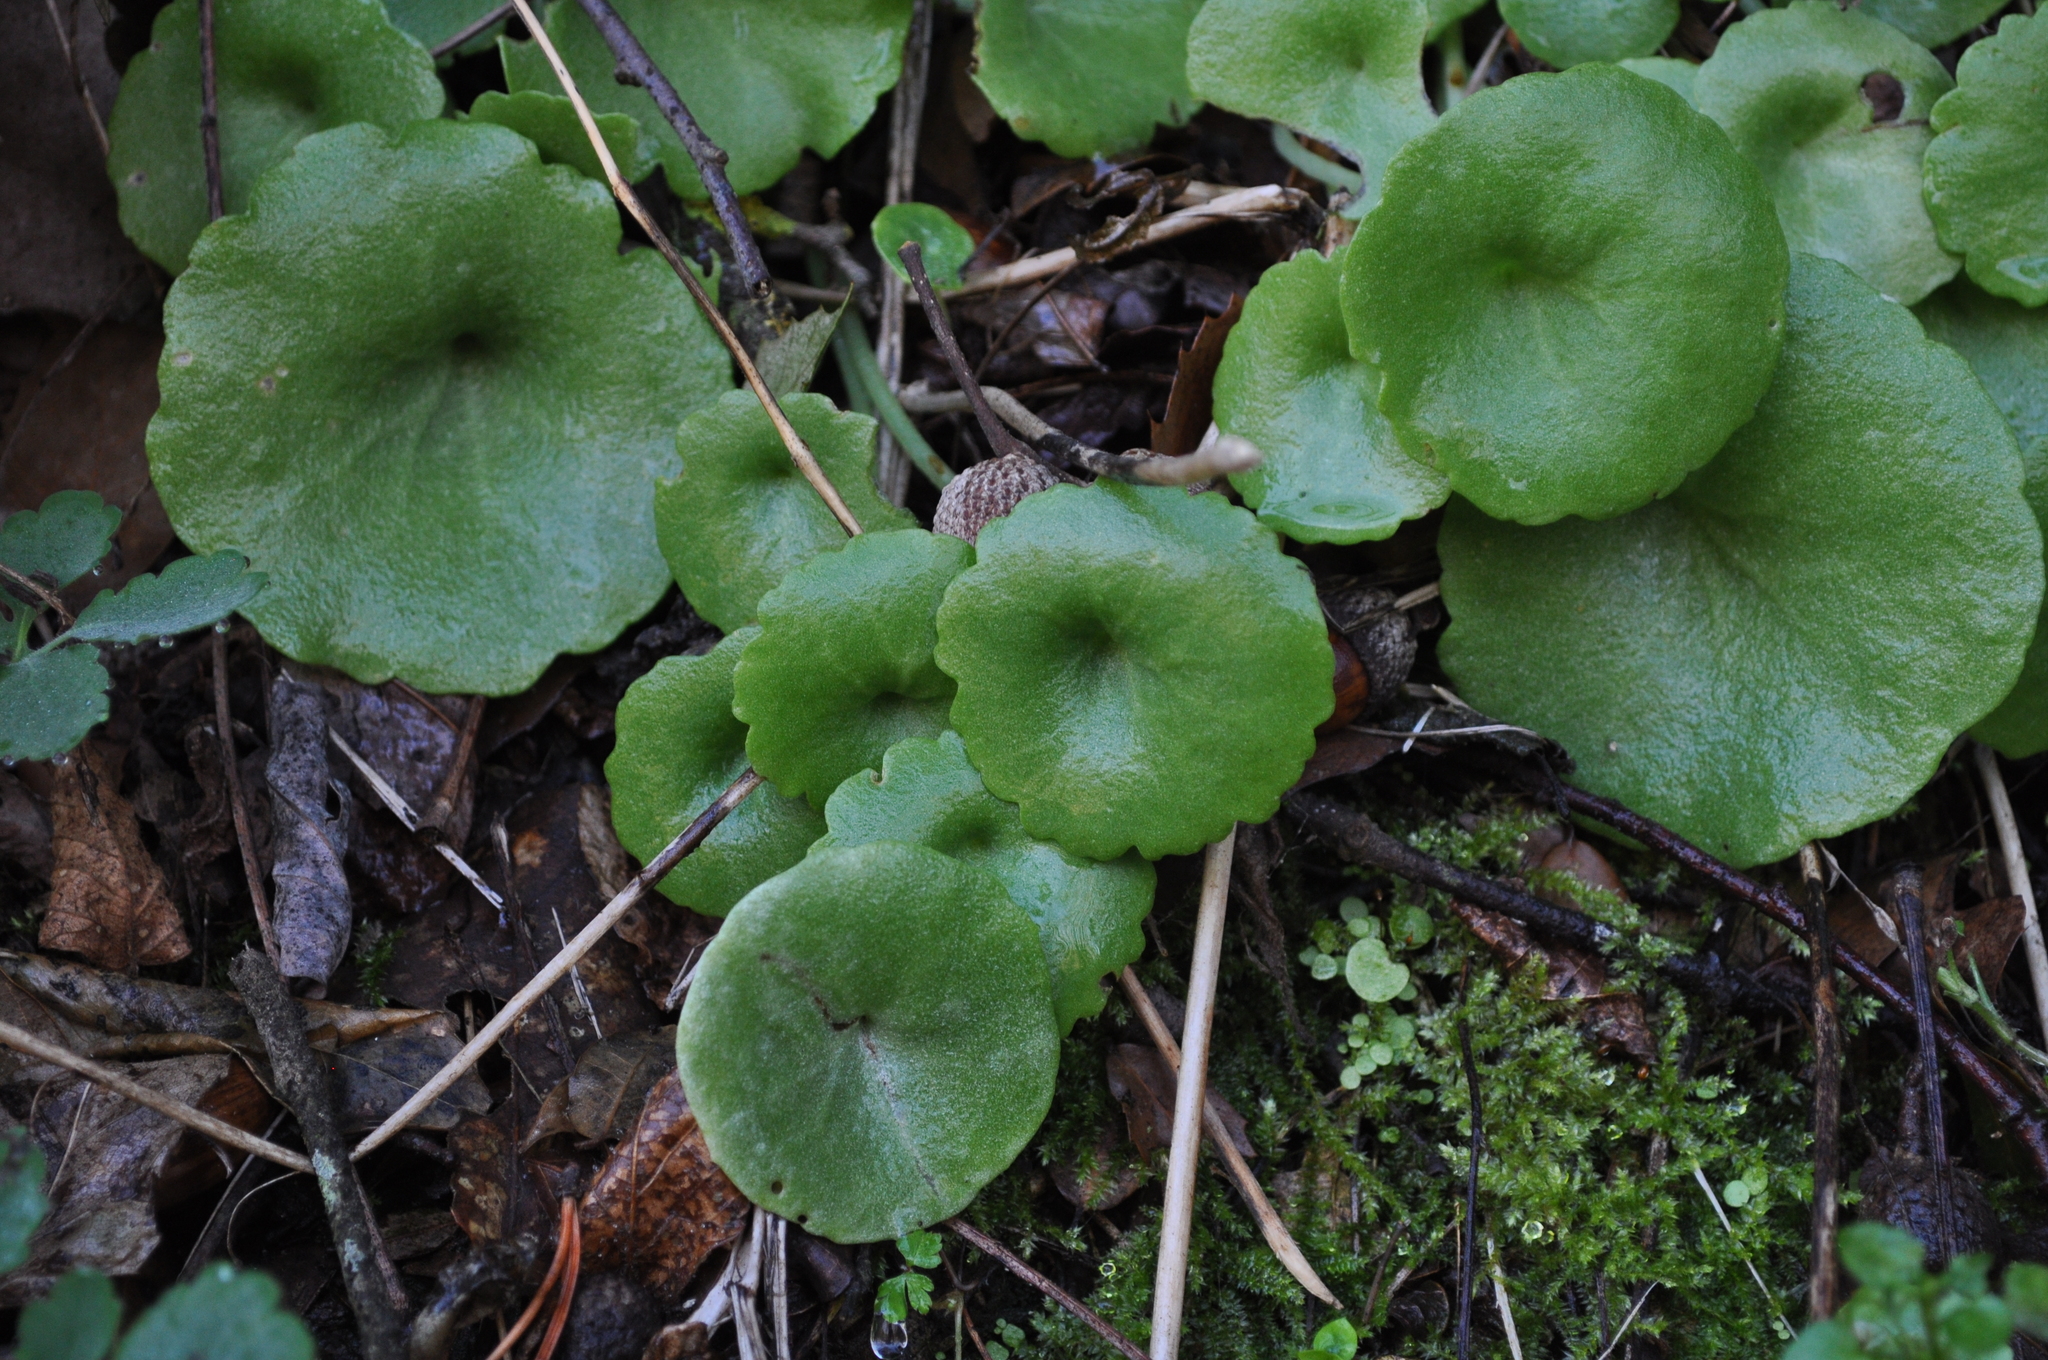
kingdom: Plantae
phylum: Tracheophyta
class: Magnoliopsida
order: Saxifragales
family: Crassulaceae
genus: Umbilicus
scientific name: Umbilicus rupestris
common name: Navelwort
